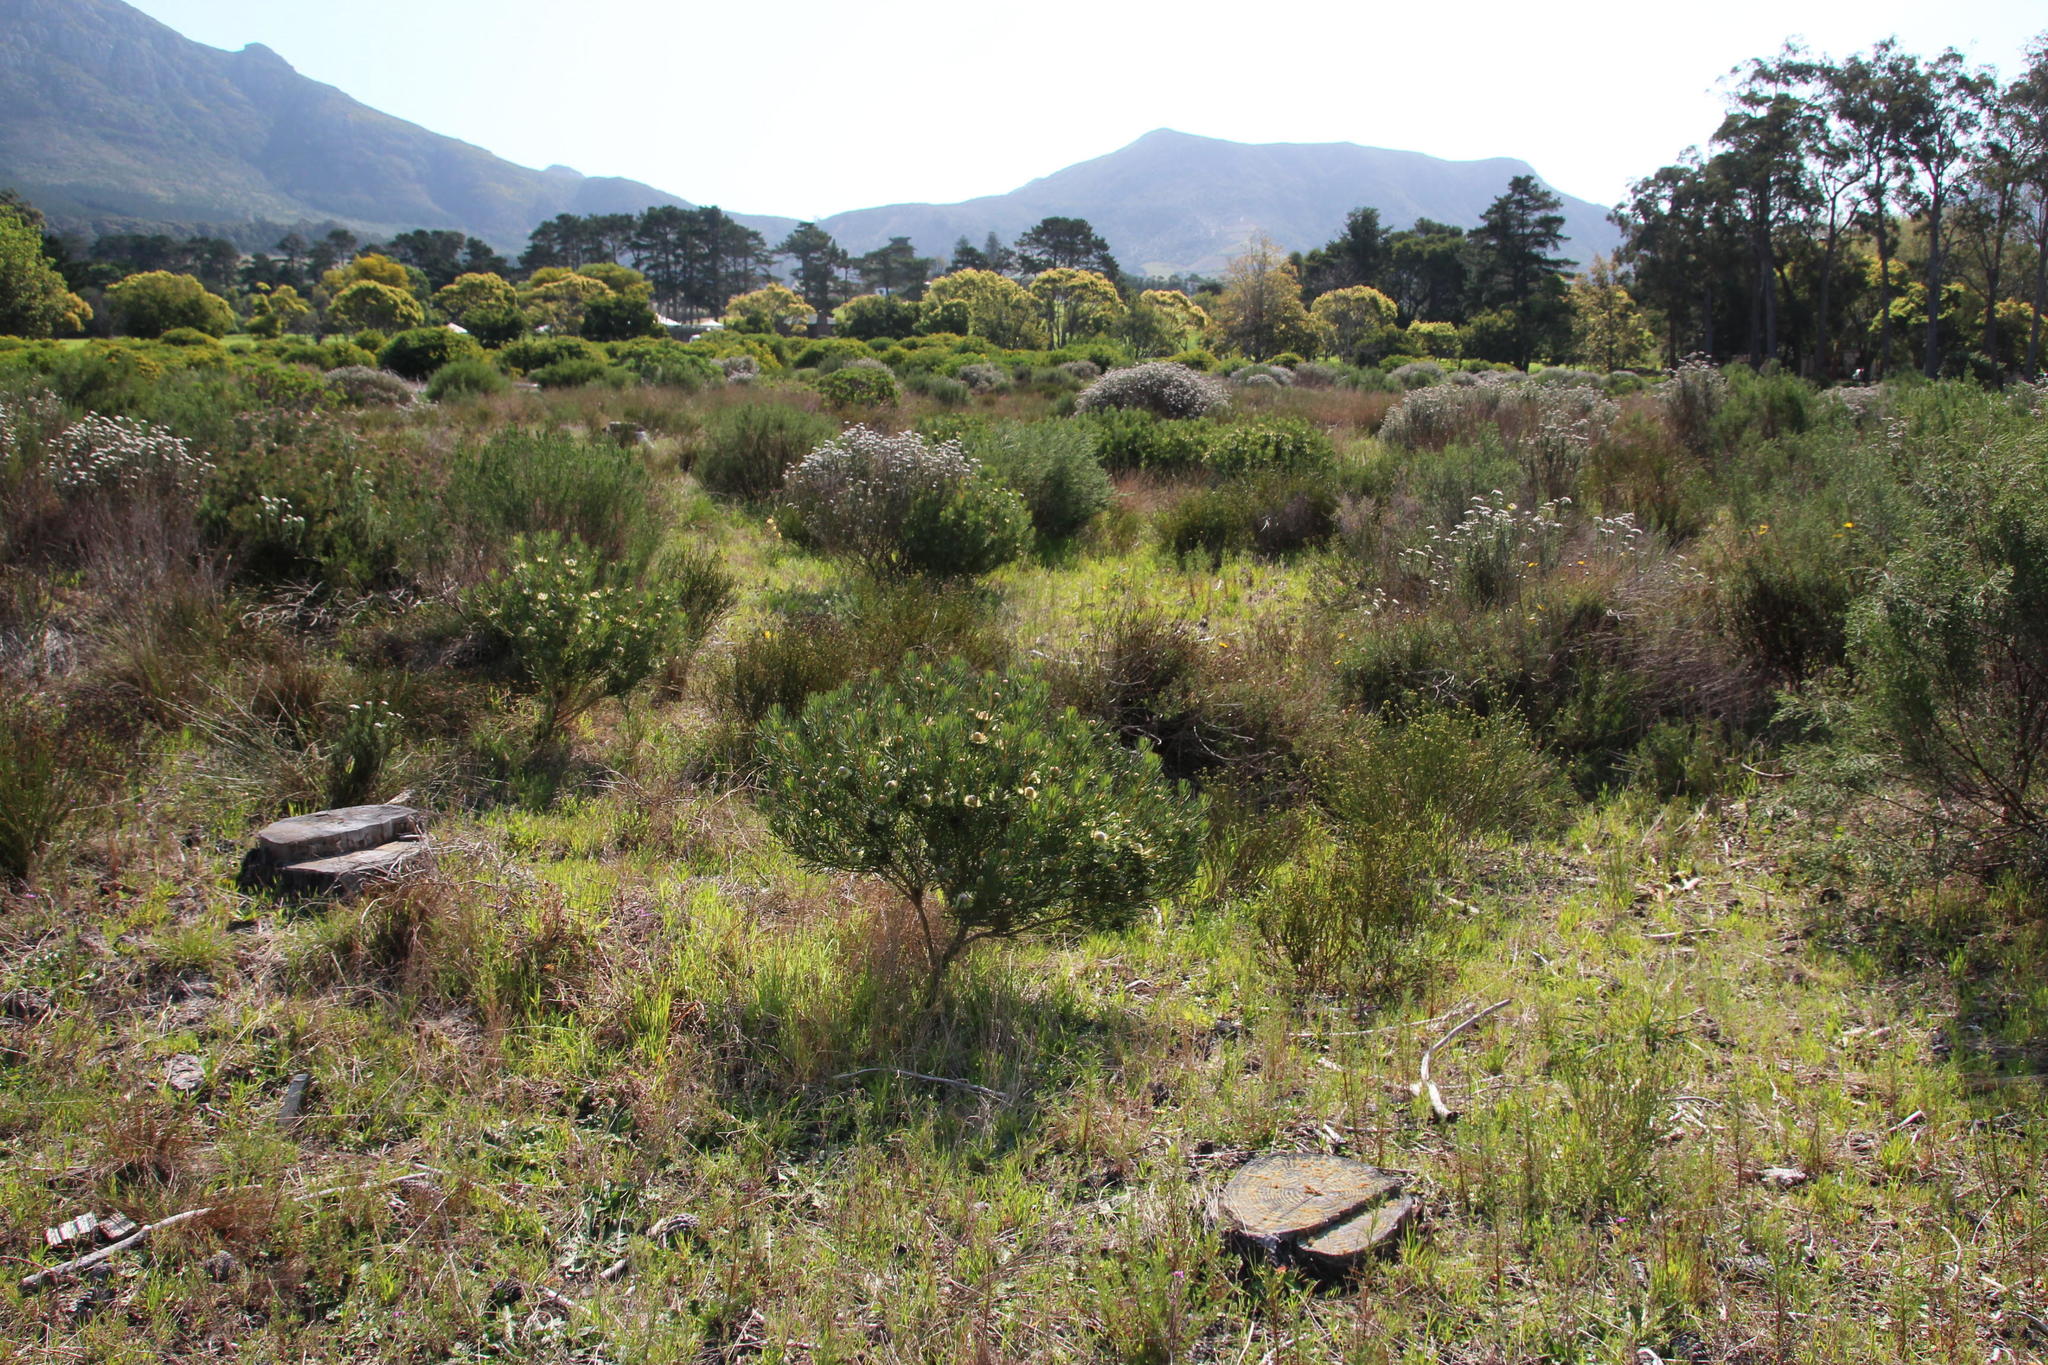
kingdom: Plantae
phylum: Tracheophyta
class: Magnoliopsida
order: Proteales
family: Proteaceae
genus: Protea
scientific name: Protea scolymocephala
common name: Thistle sugarbush
